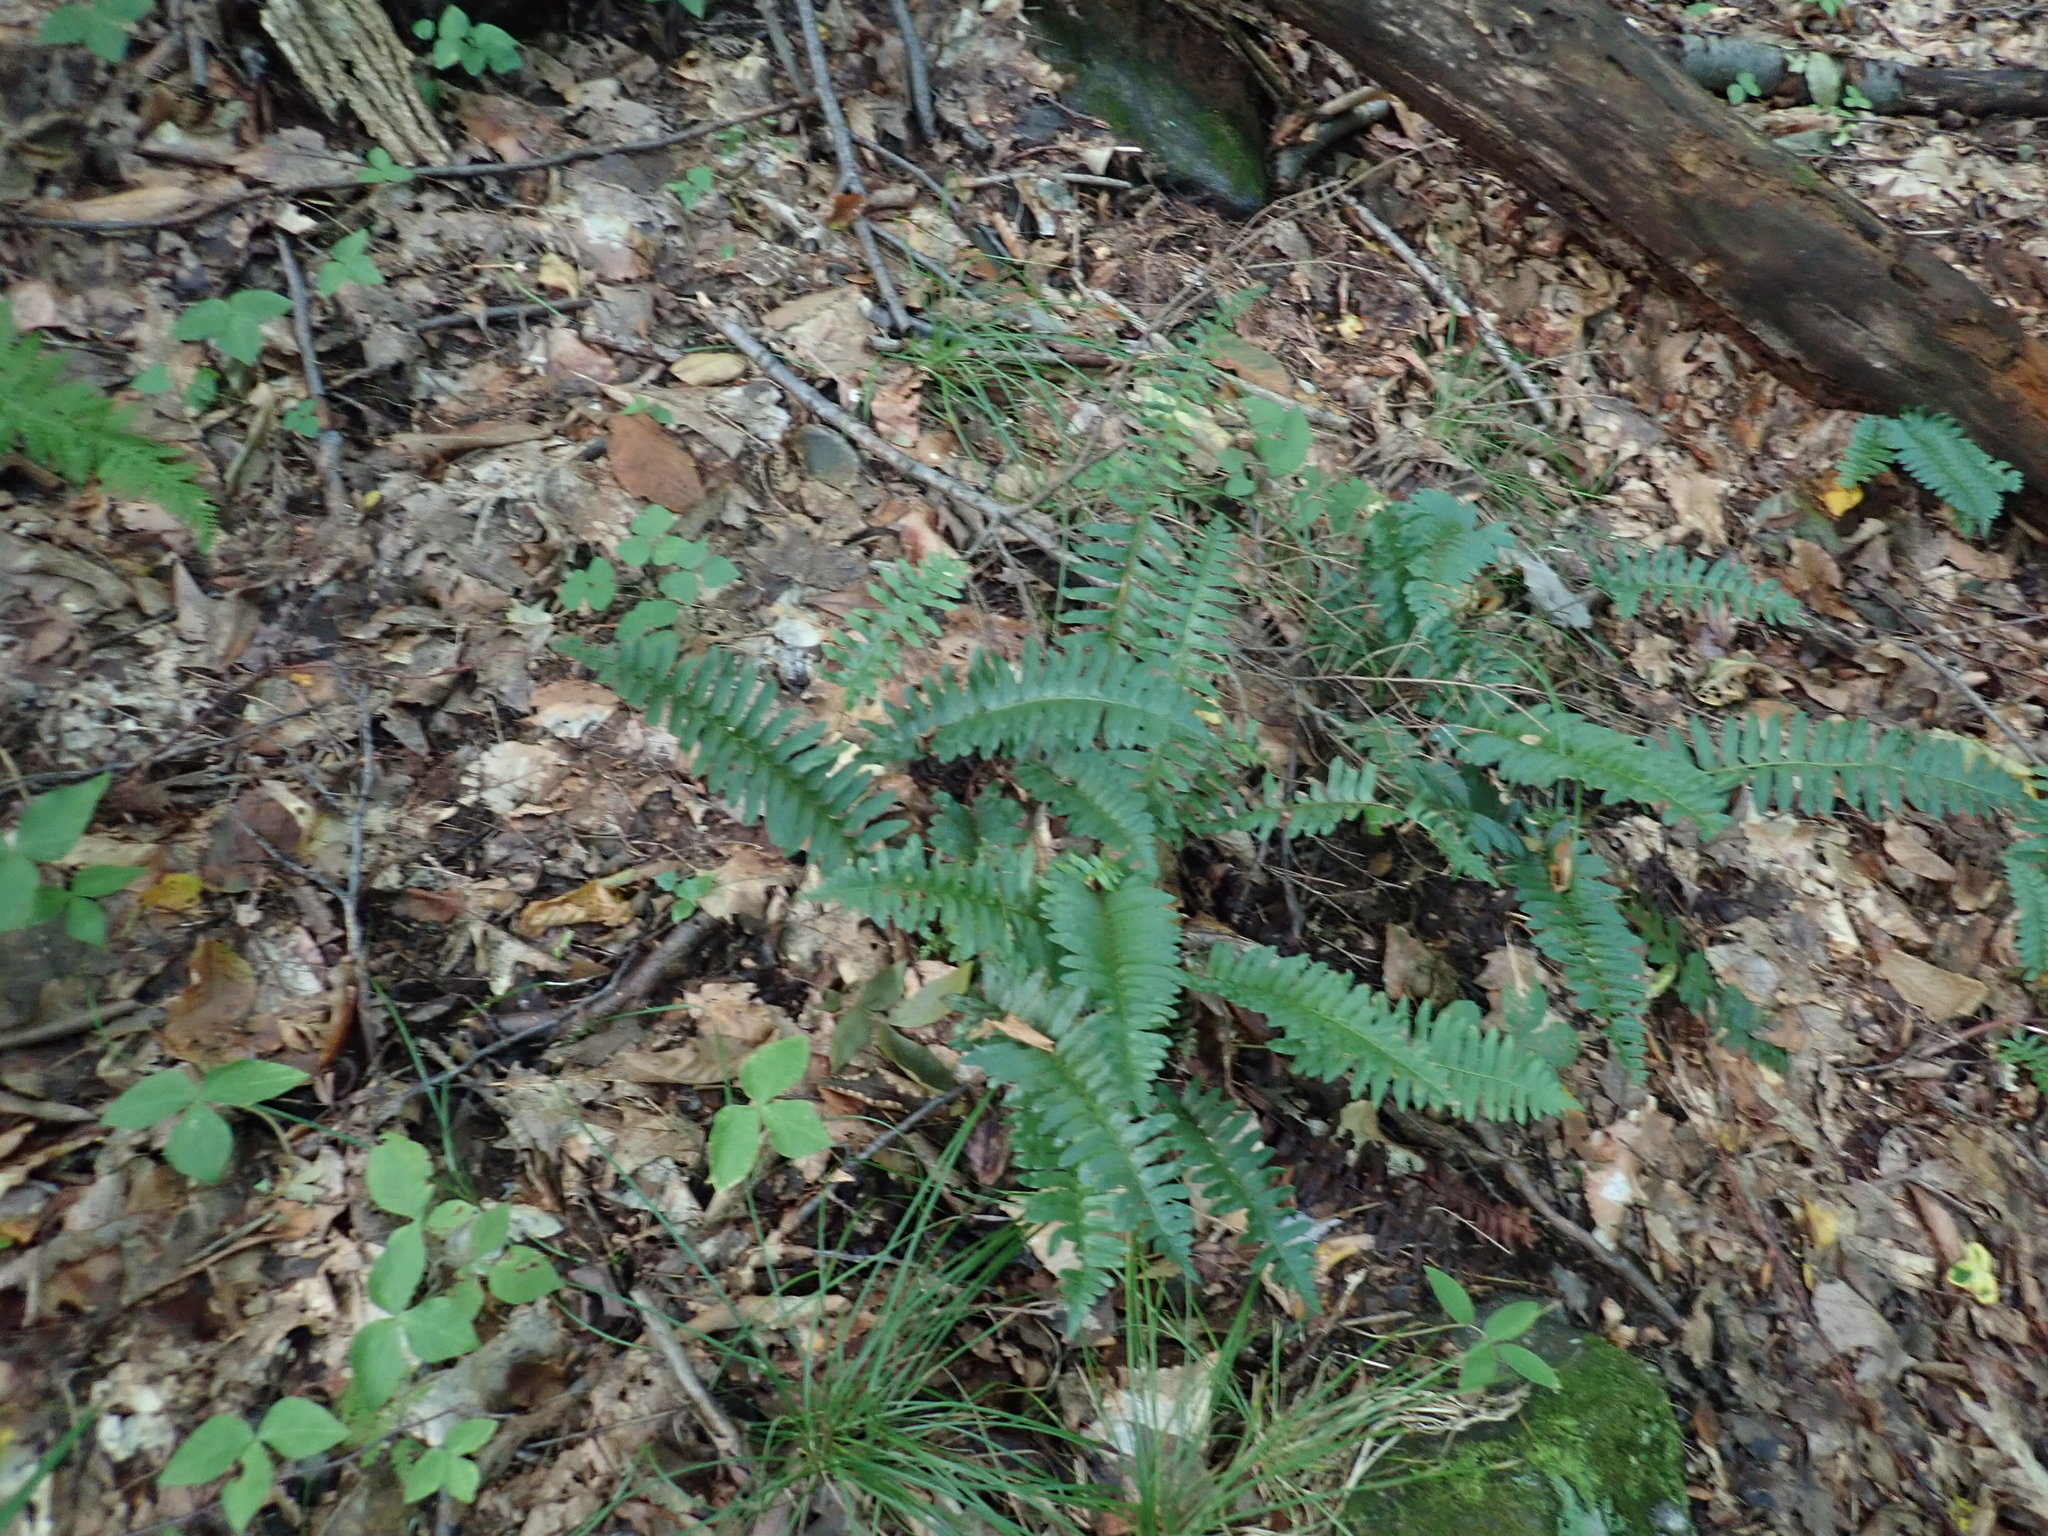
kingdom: Plantae
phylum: Tracheophyta
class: Polypodiopsida
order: Polypodiales
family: Dryopteridaceae
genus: Polystichum
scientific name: Polystichum acrostichoides
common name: Christmas fern
